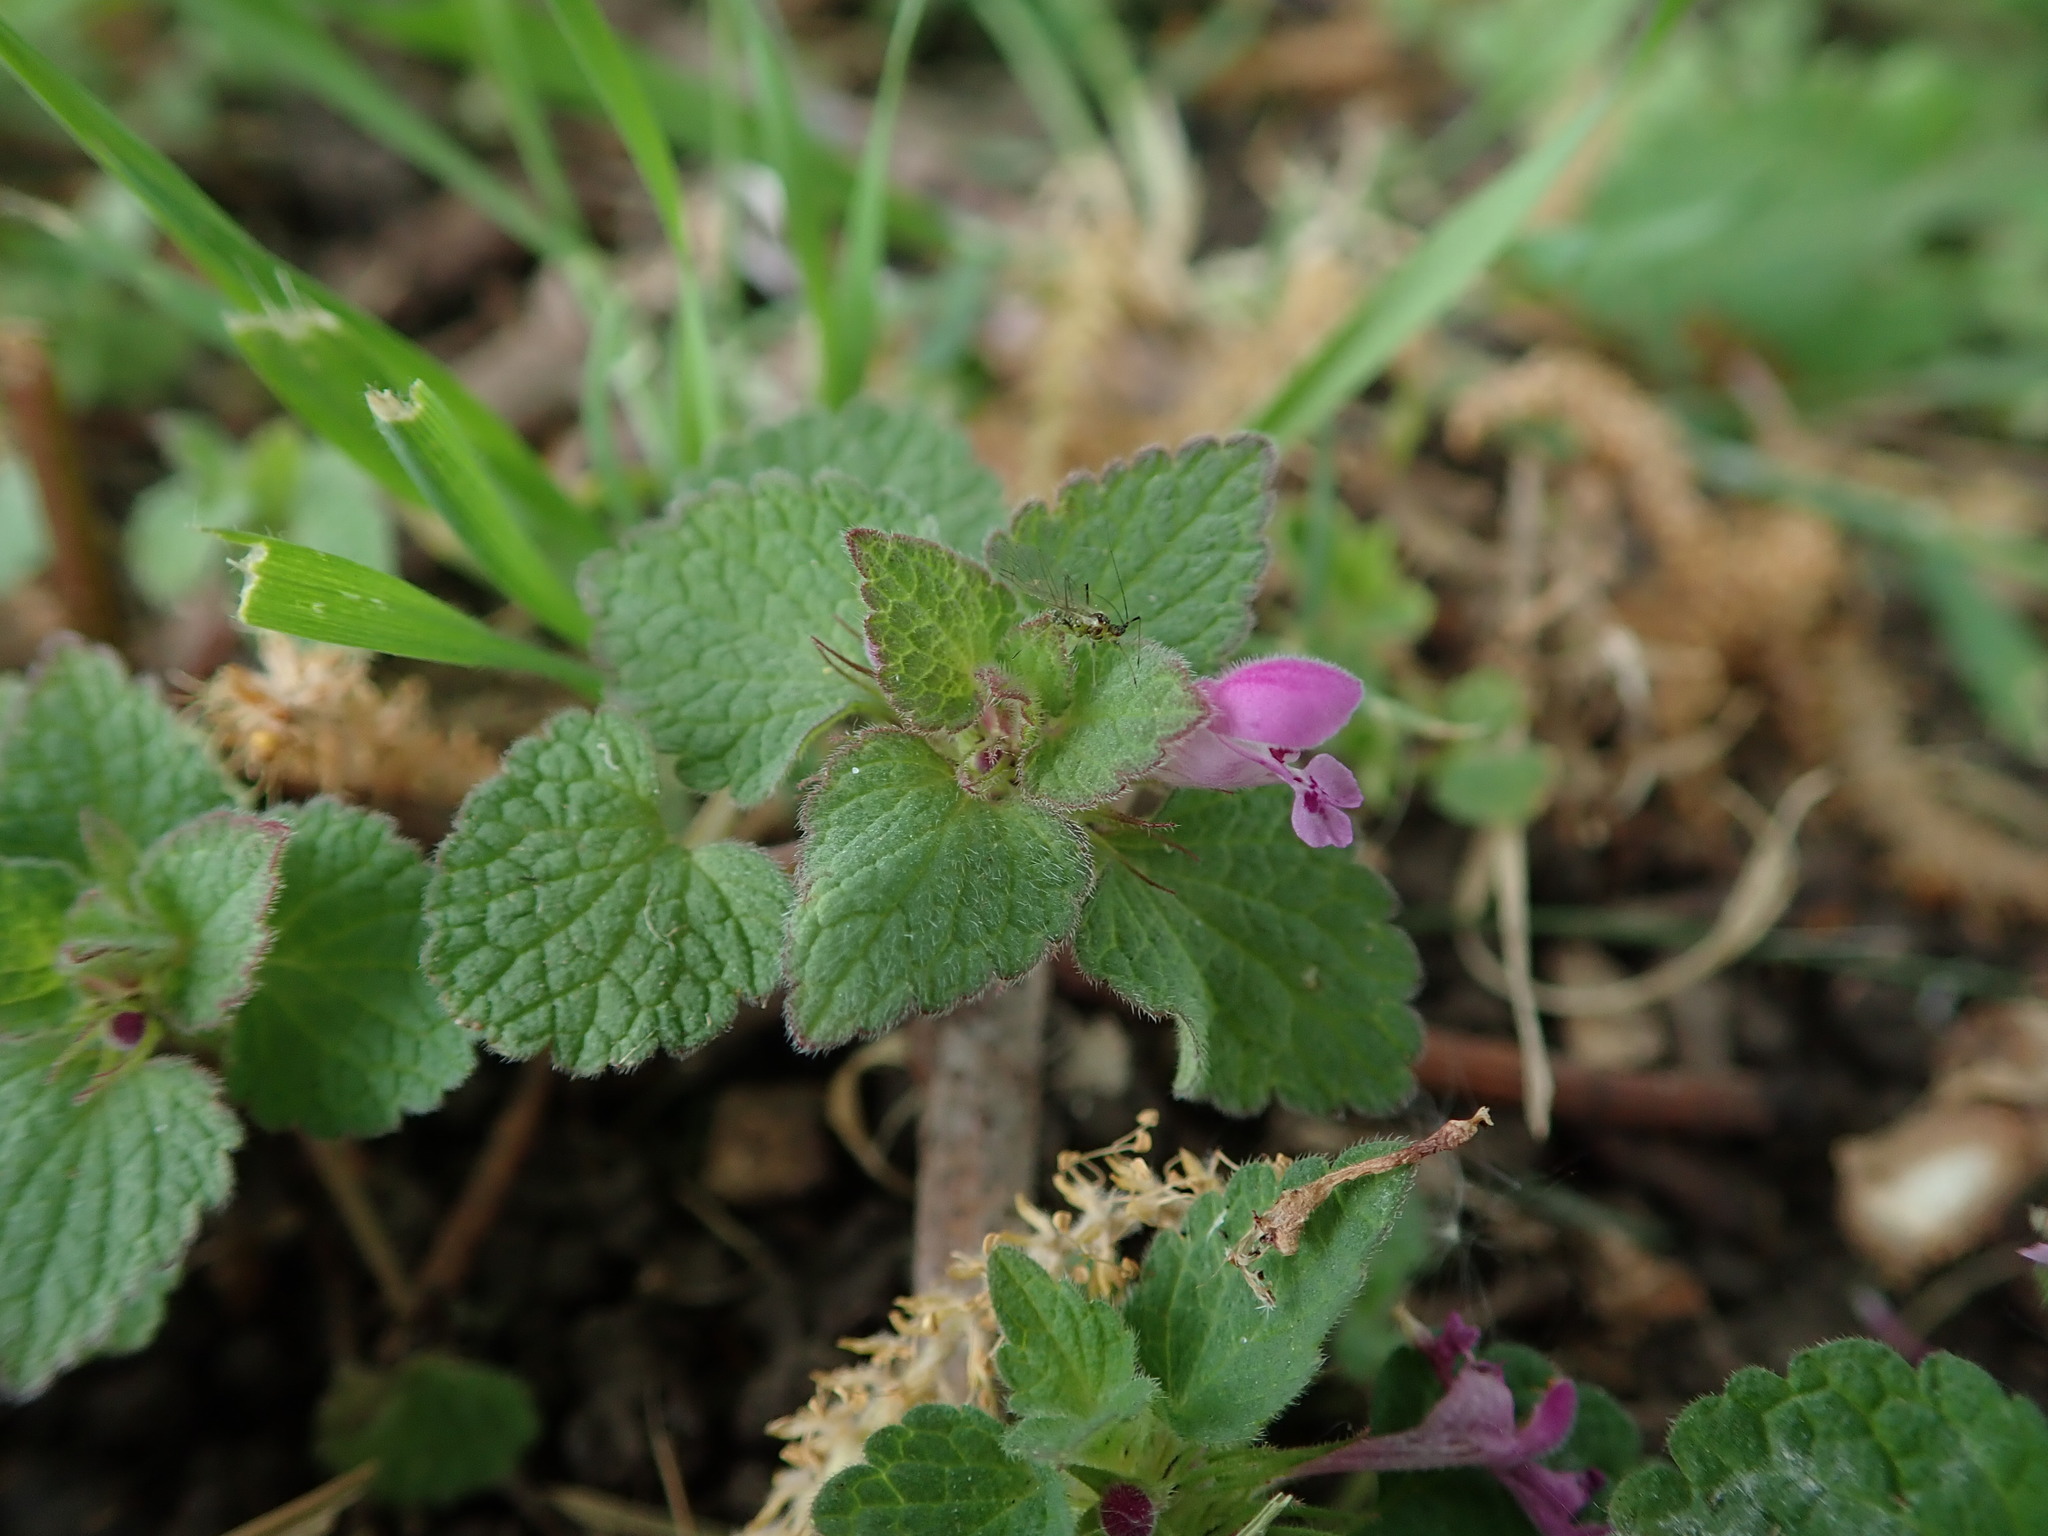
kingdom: Plantae
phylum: Tracheophyta
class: Magnoliopsida
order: Lamiales
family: Lamiaceae
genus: Lamium
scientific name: Lamium purpureum
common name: Red dead-nettle
